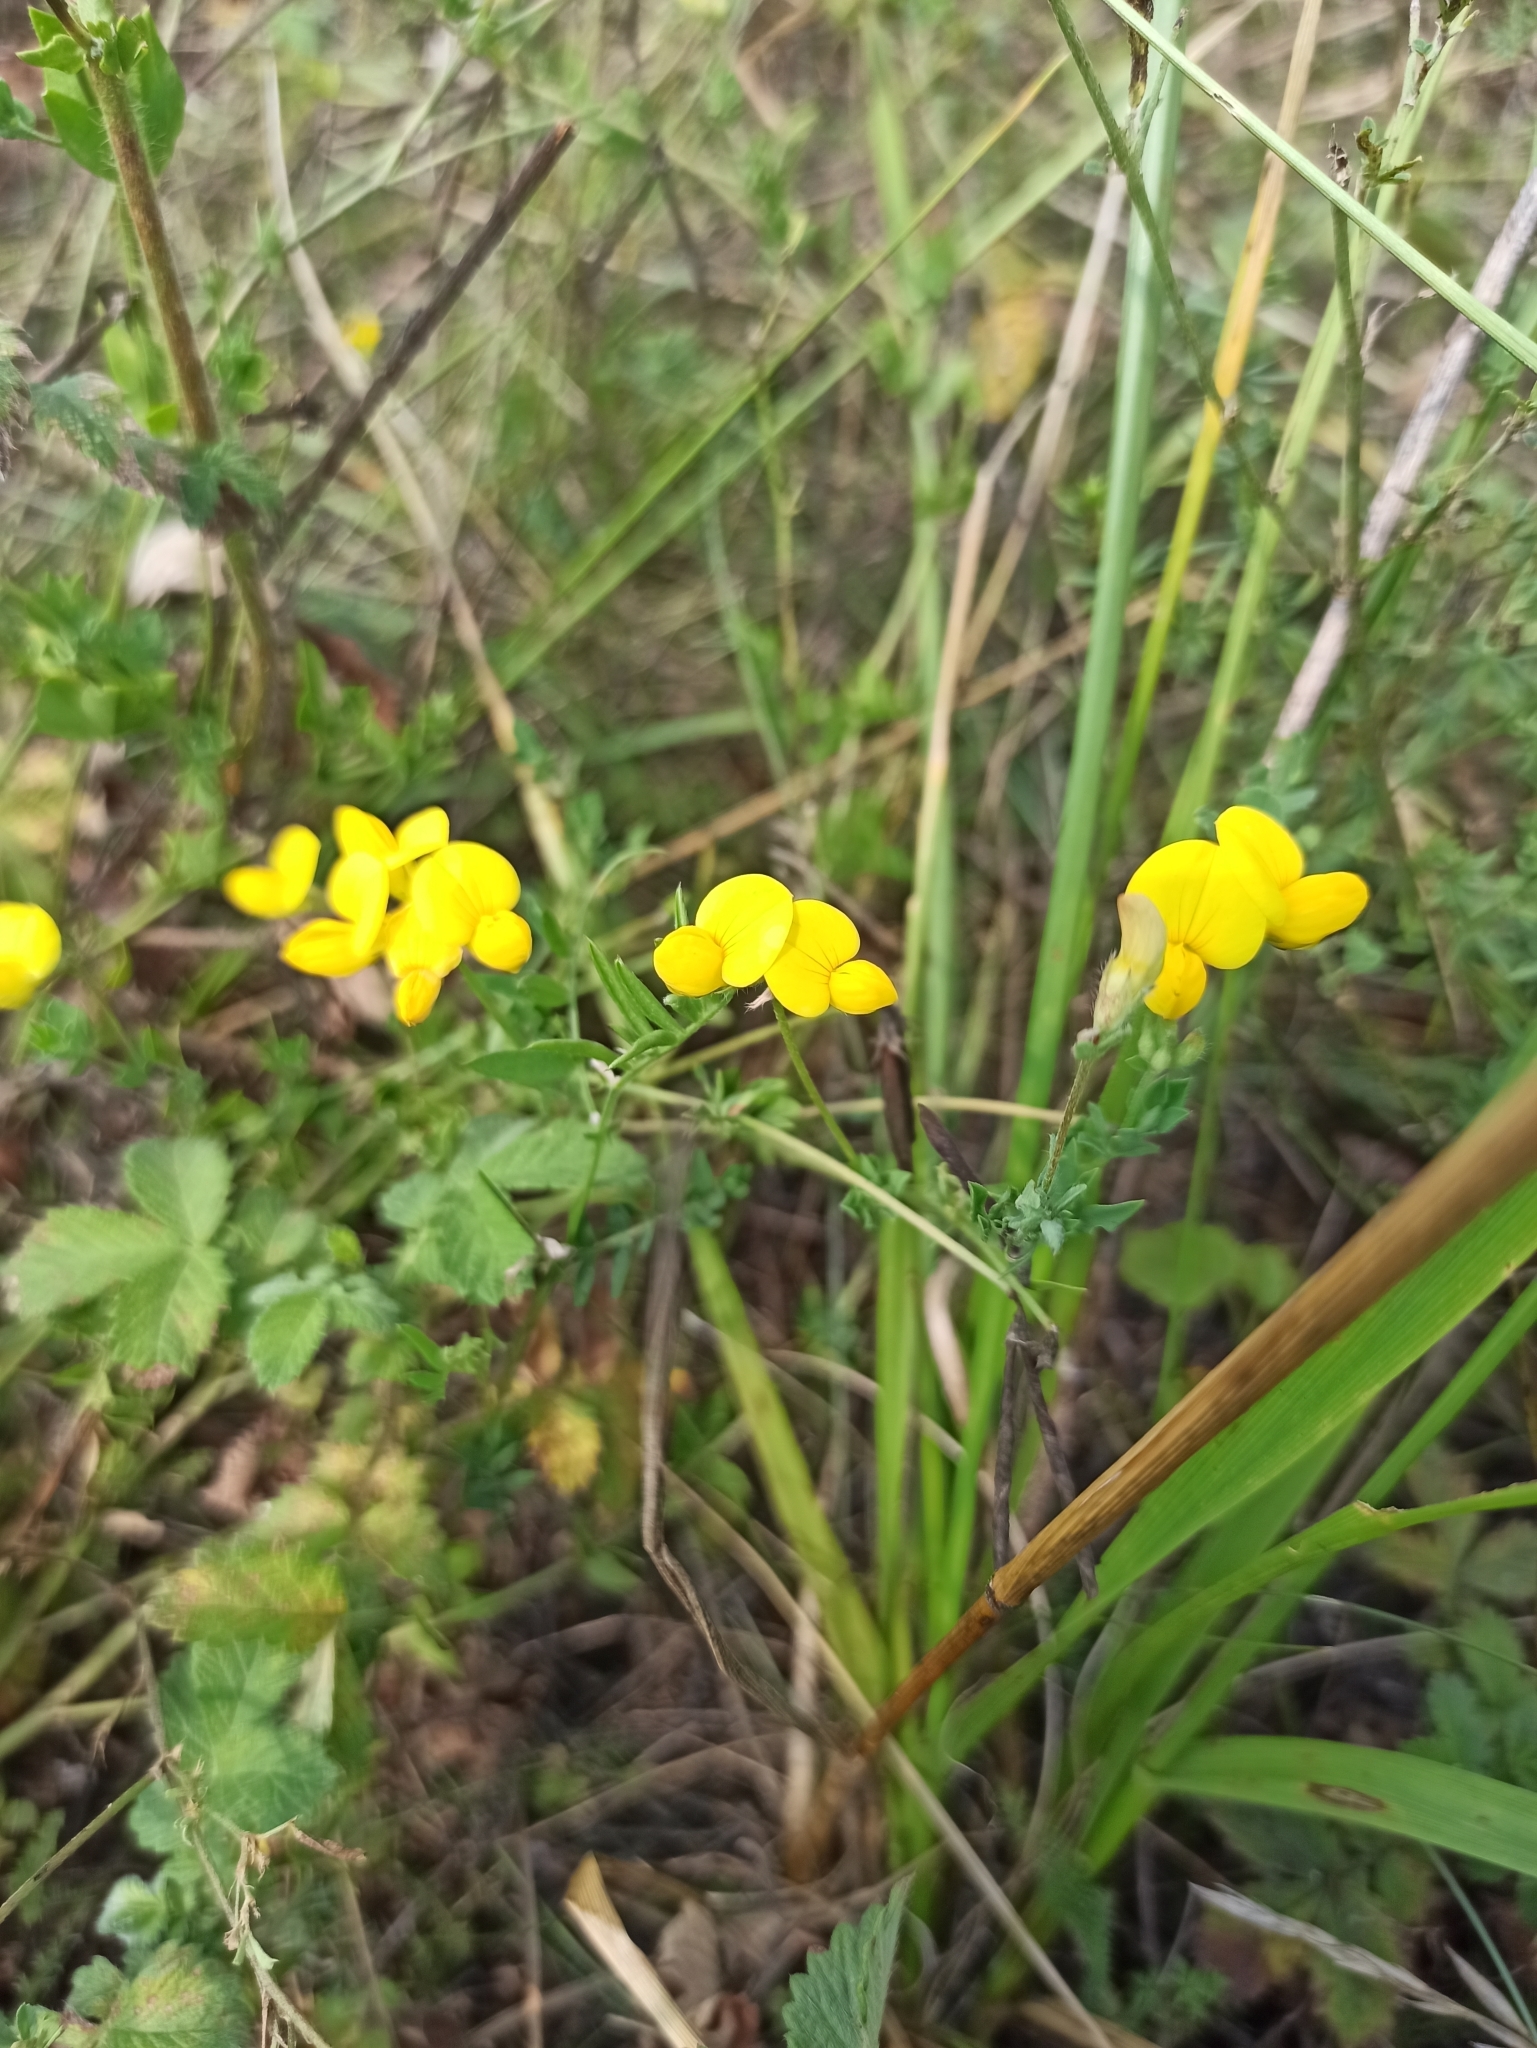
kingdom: Plantae
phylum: Tracheophyta
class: Magnoliopsida
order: Fabales
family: Fabaceae
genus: Lotus
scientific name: Lotus corniculatus
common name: Common bird's-foot-trefoil
